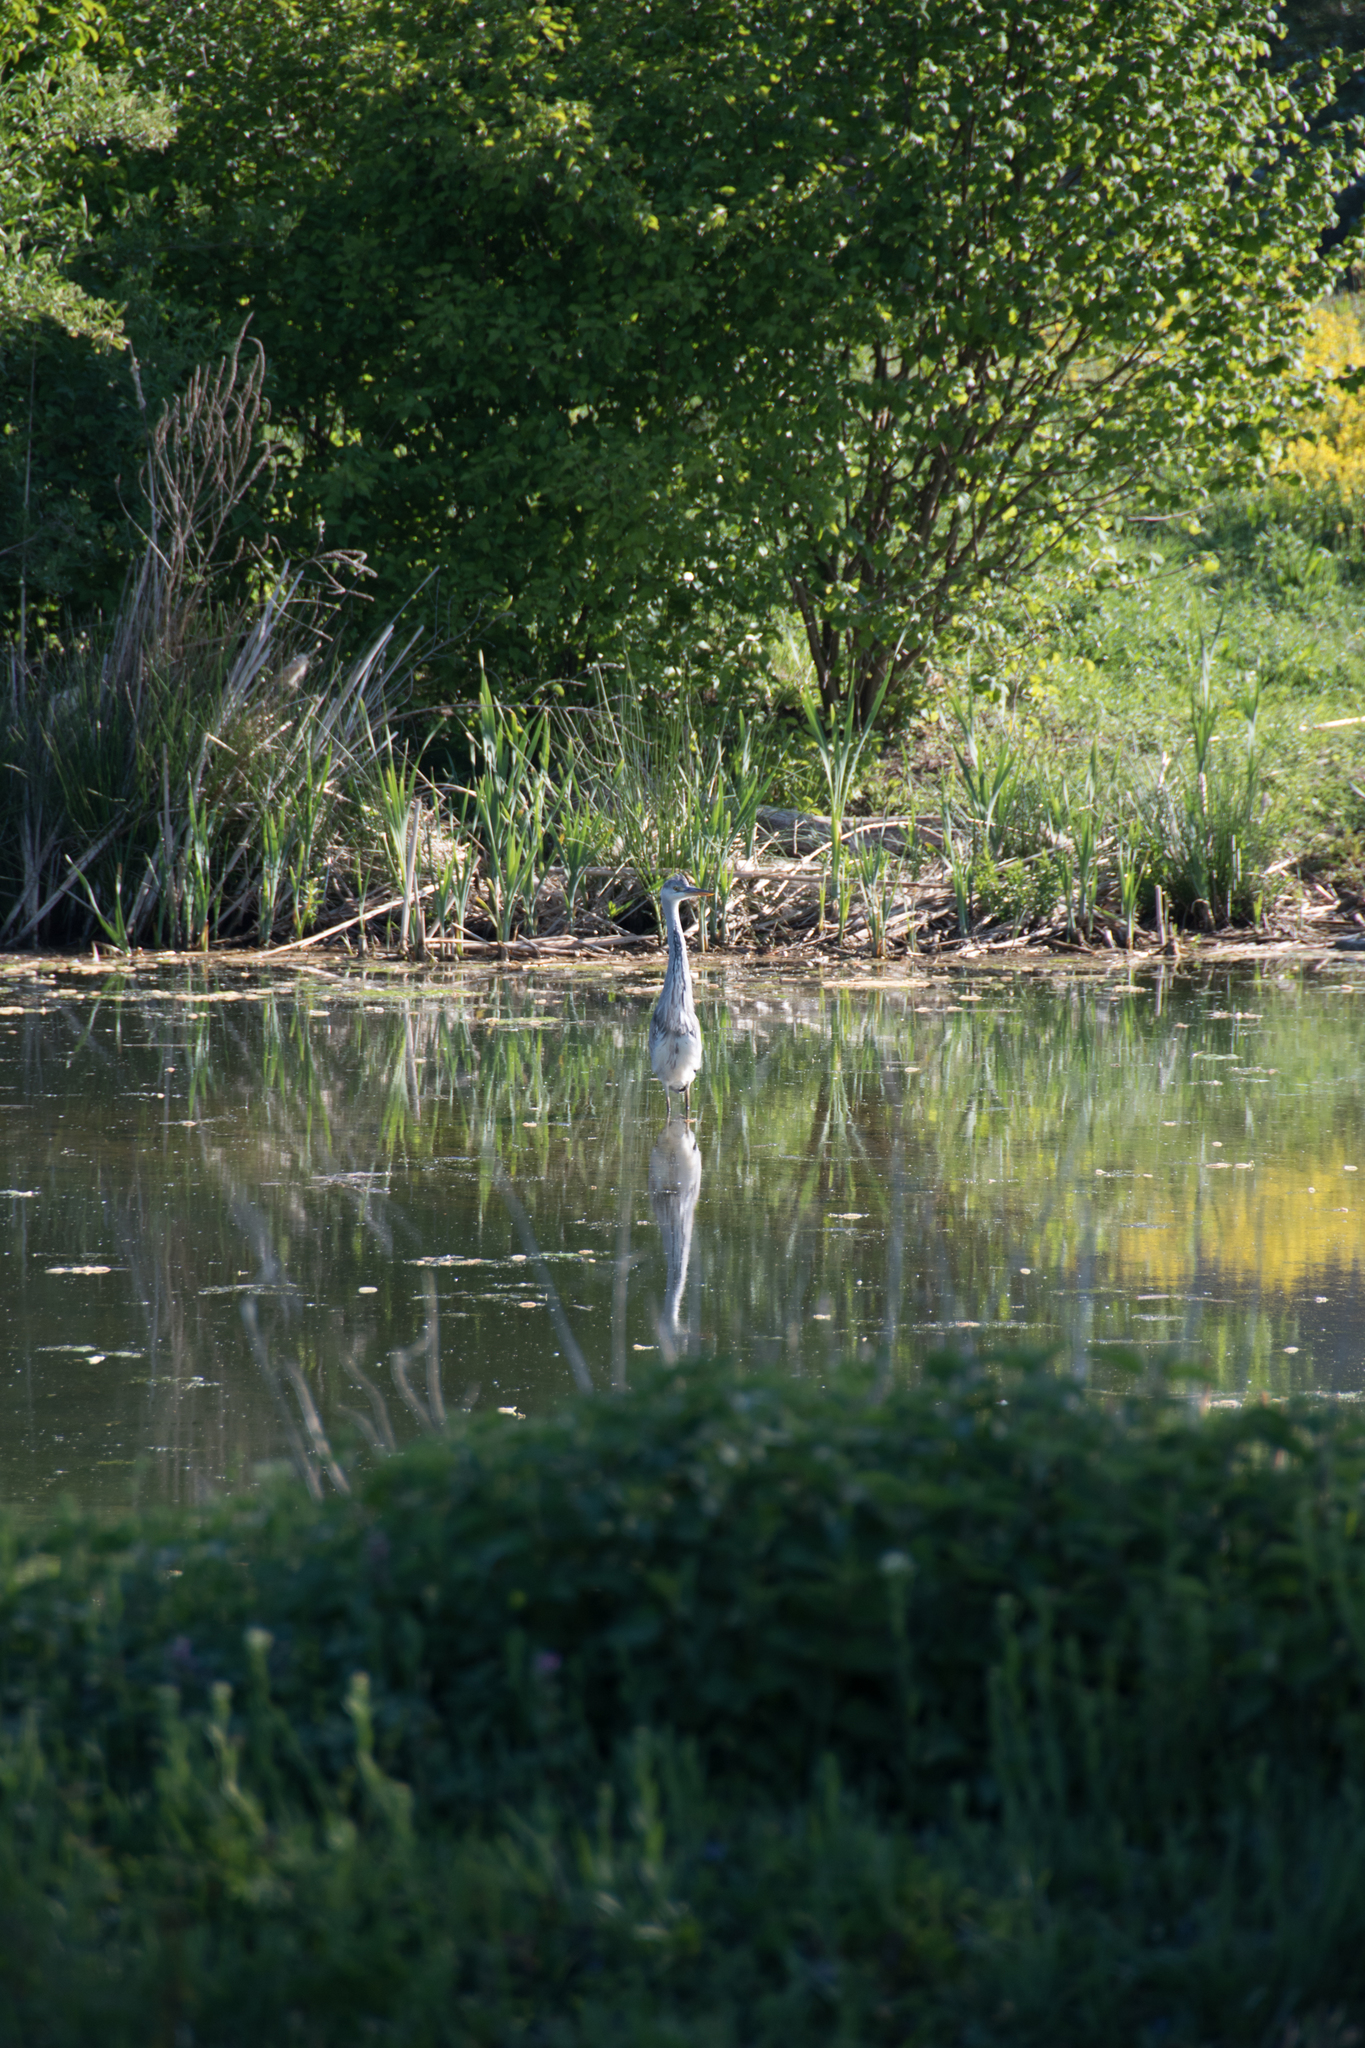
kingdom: Animalia
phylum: Chordata
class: Aves
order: Pelecaniformes
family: Ardeidae
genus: Ardea
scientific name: Ardea cinerea
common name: Grey heron
